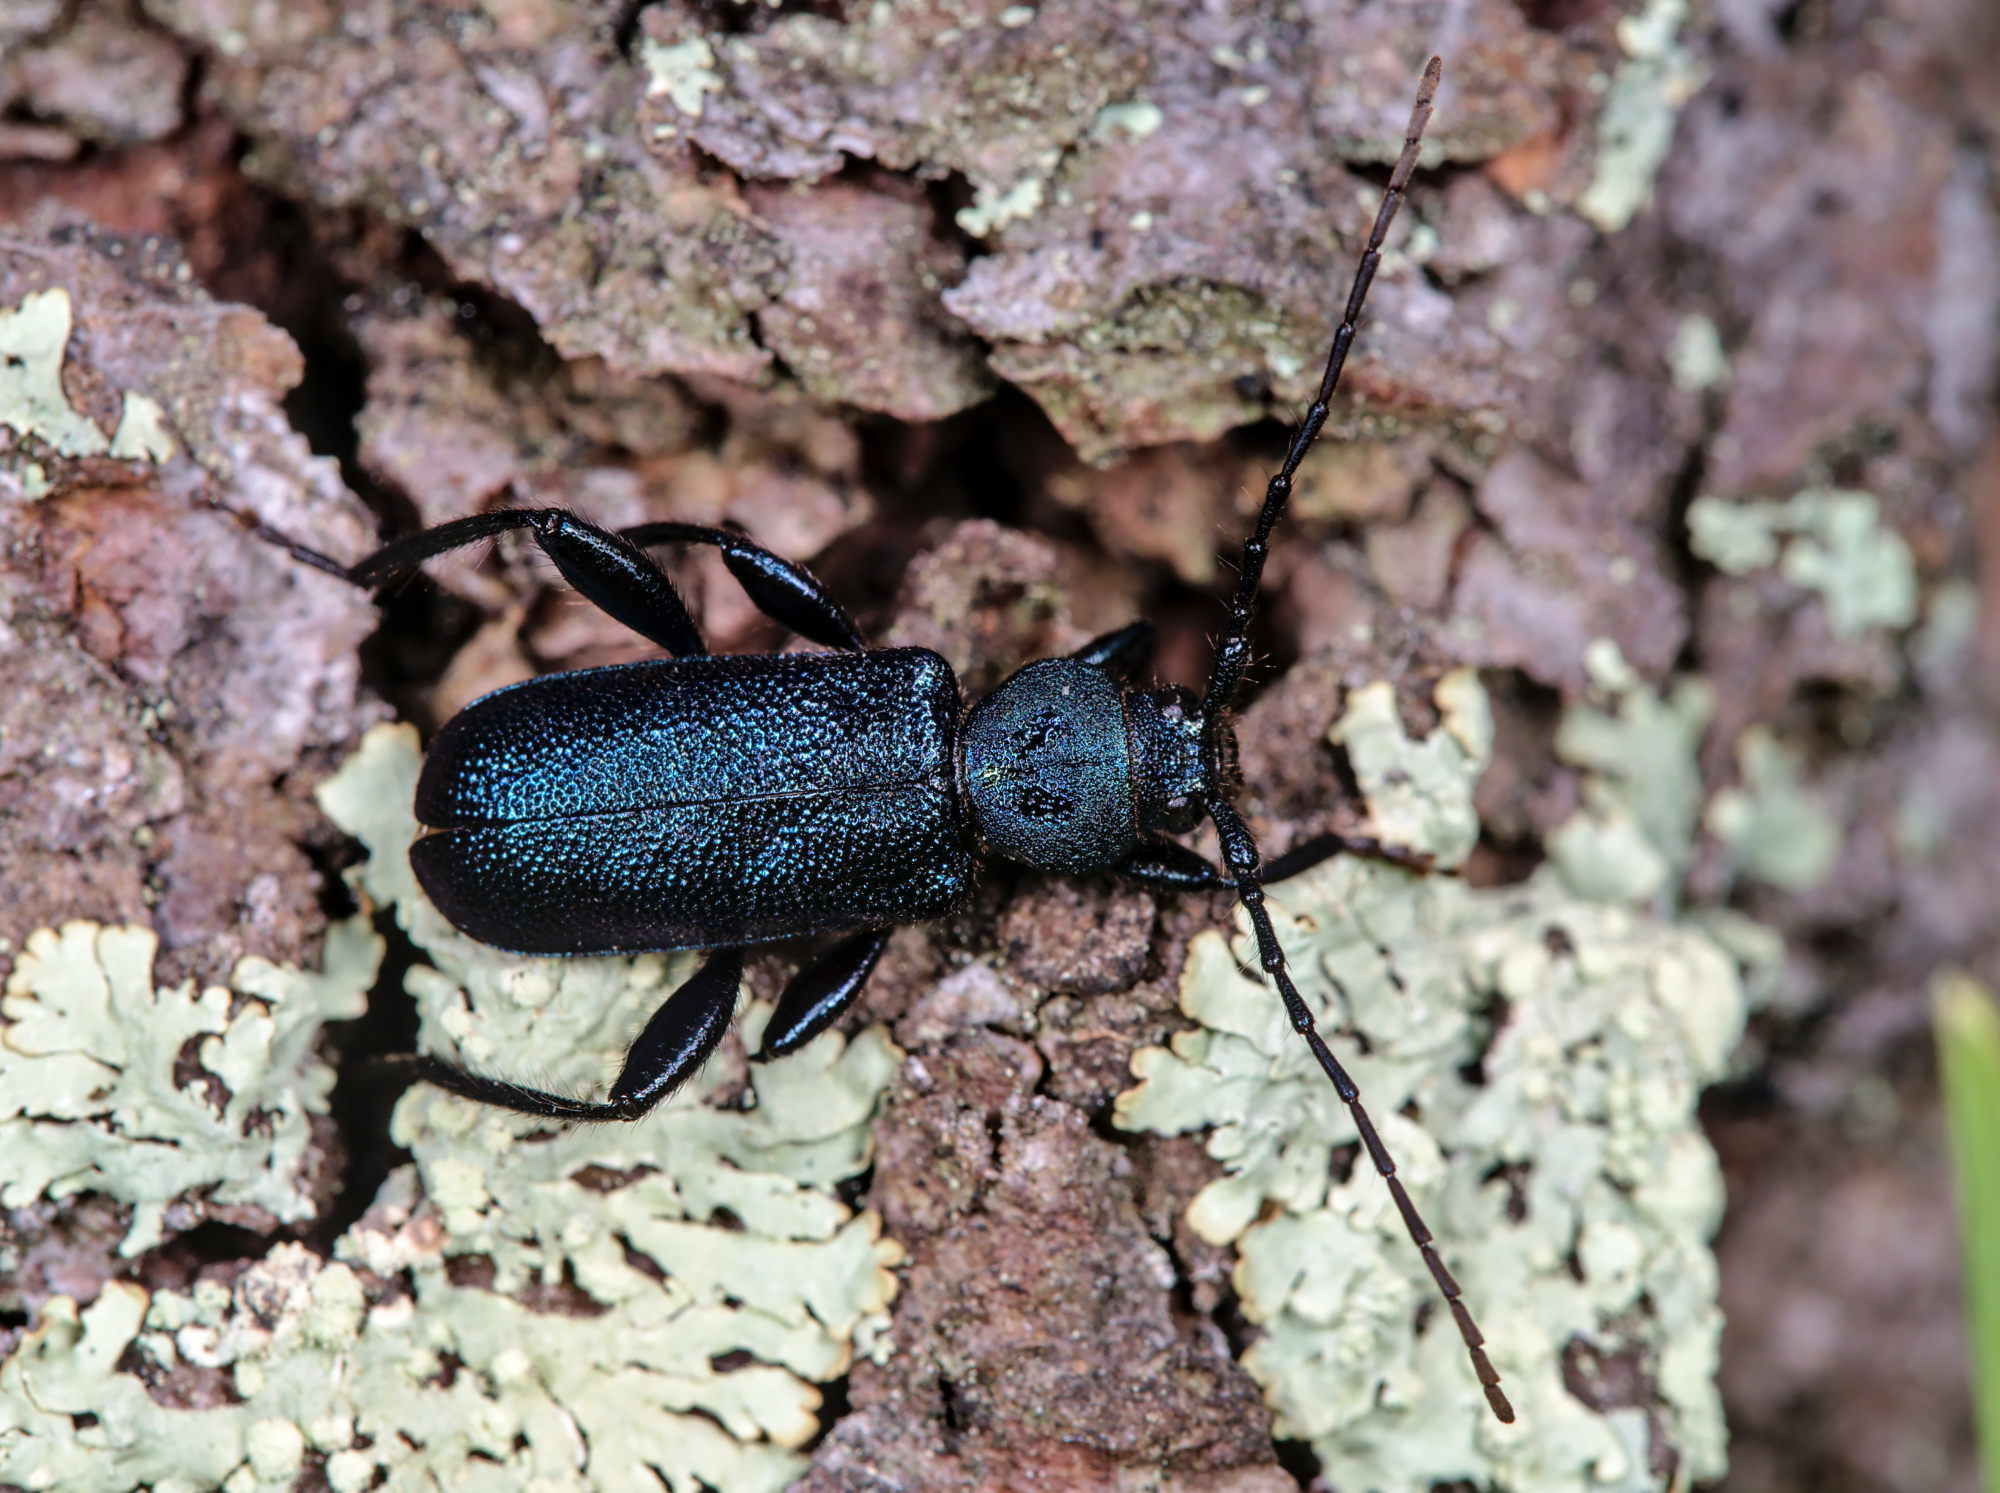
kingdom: Animalia
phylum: Arthropoda
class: Insecta
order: Coleoptera
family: Cerambycidae
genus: Callidium
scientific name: Callidium violaceum
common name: Violet tanbark beetle
